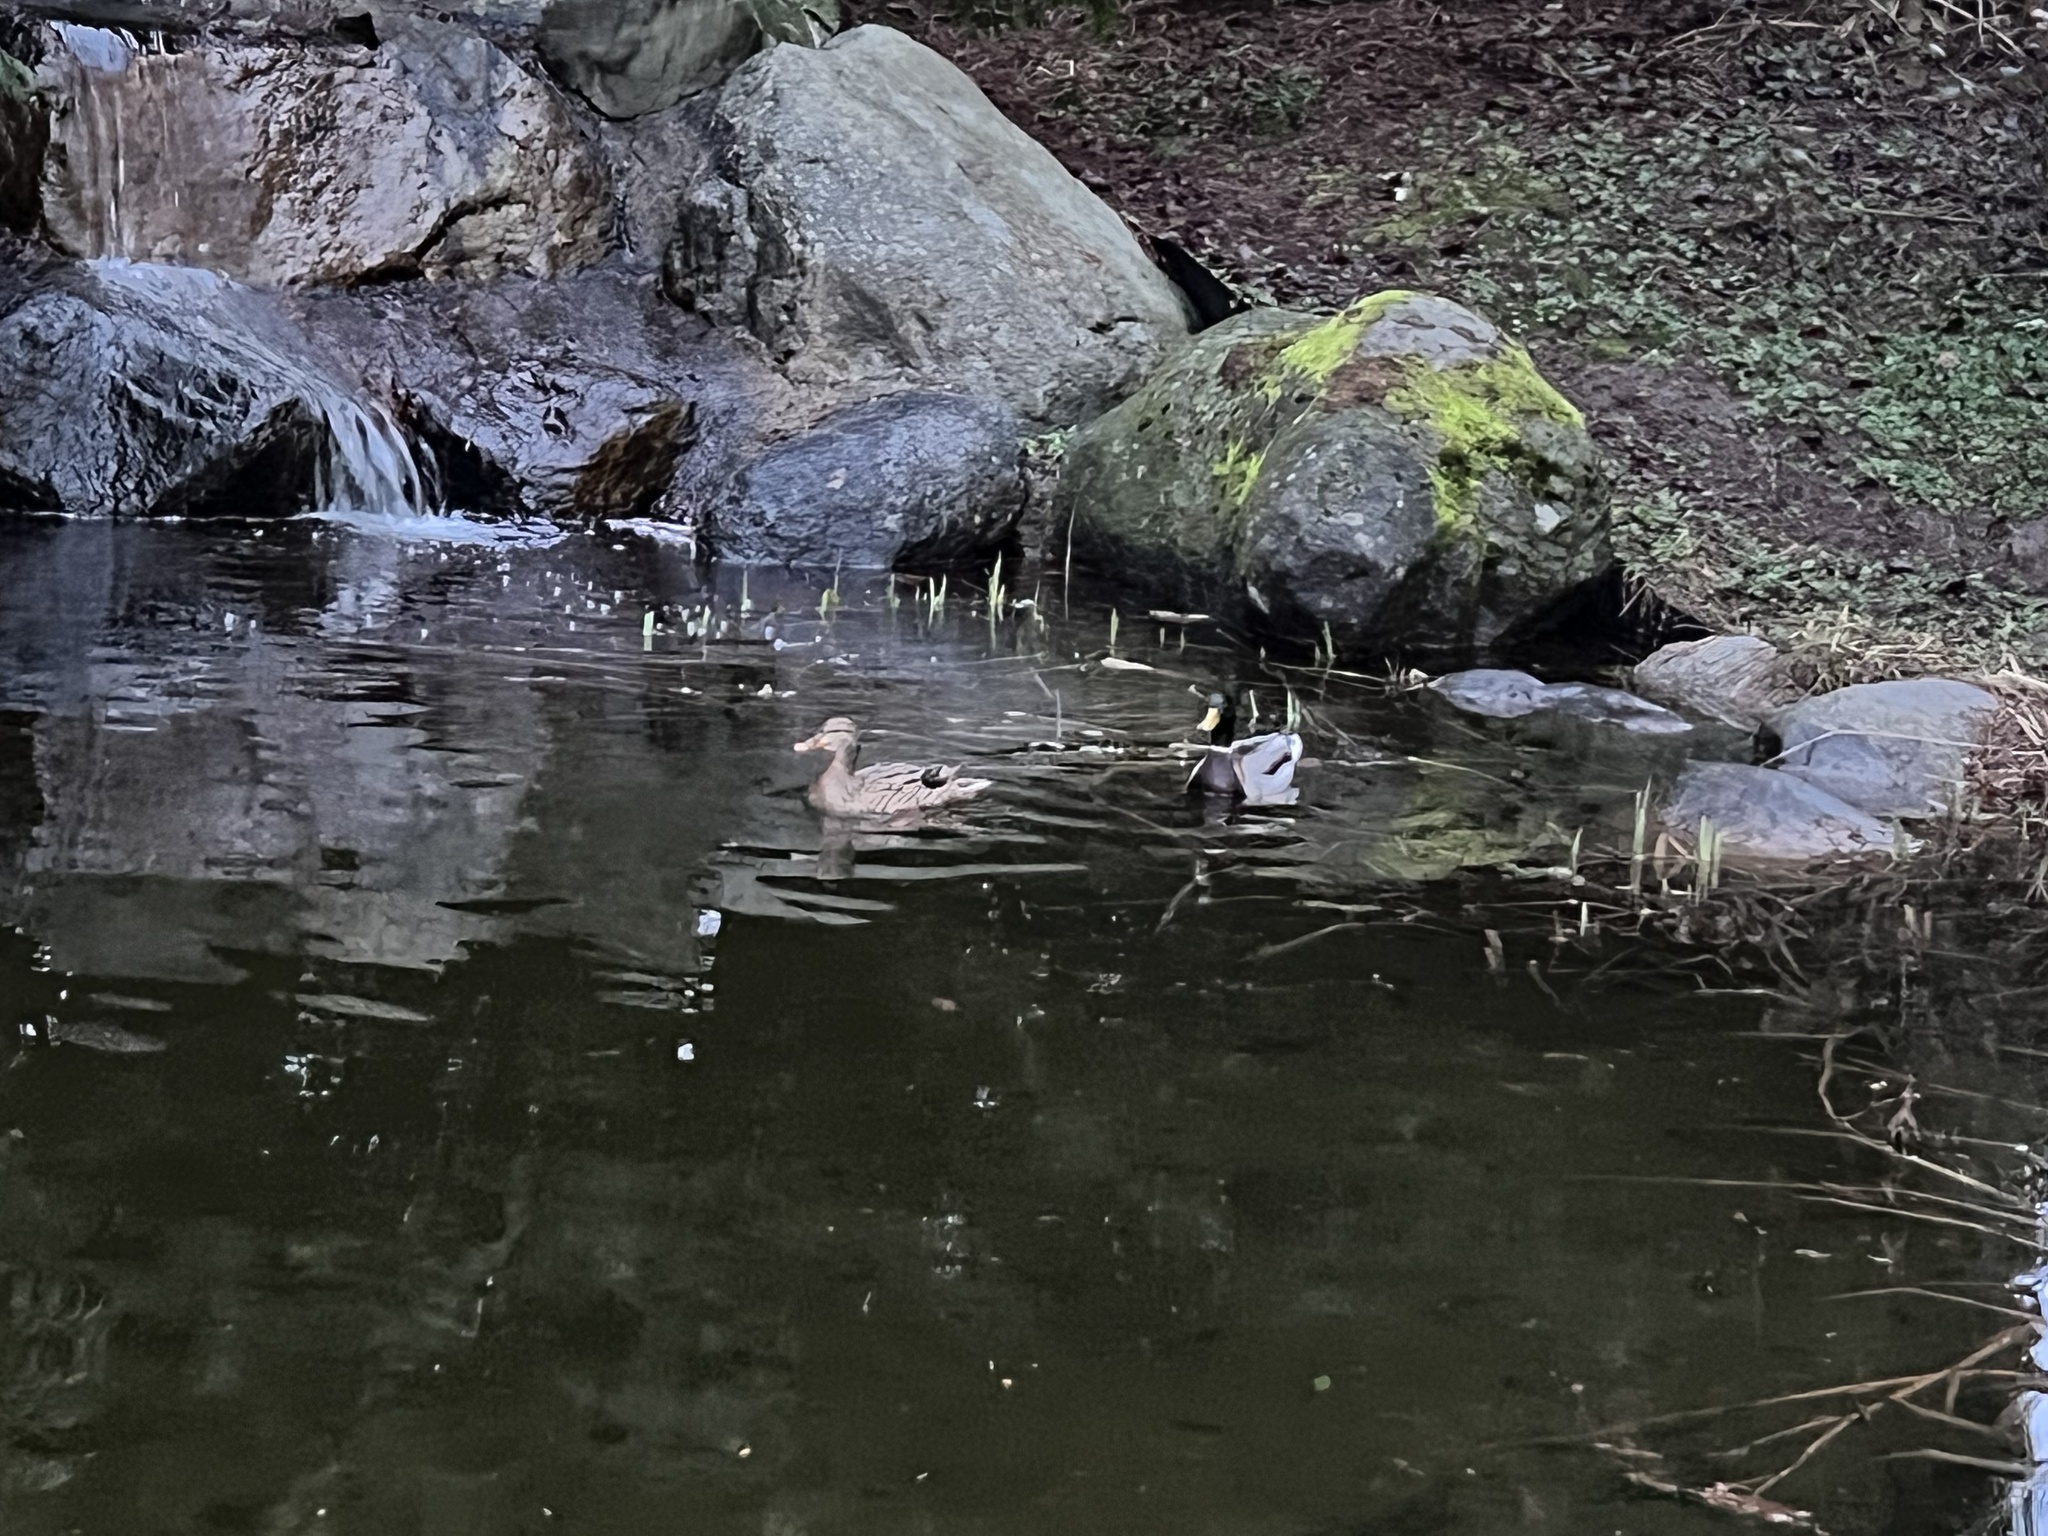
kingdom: Animalia
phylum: Chordata
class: Aves
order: Anseriformes
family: Anatidae
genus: Anas
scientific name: Anas platyrhynchos
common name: Mallard
